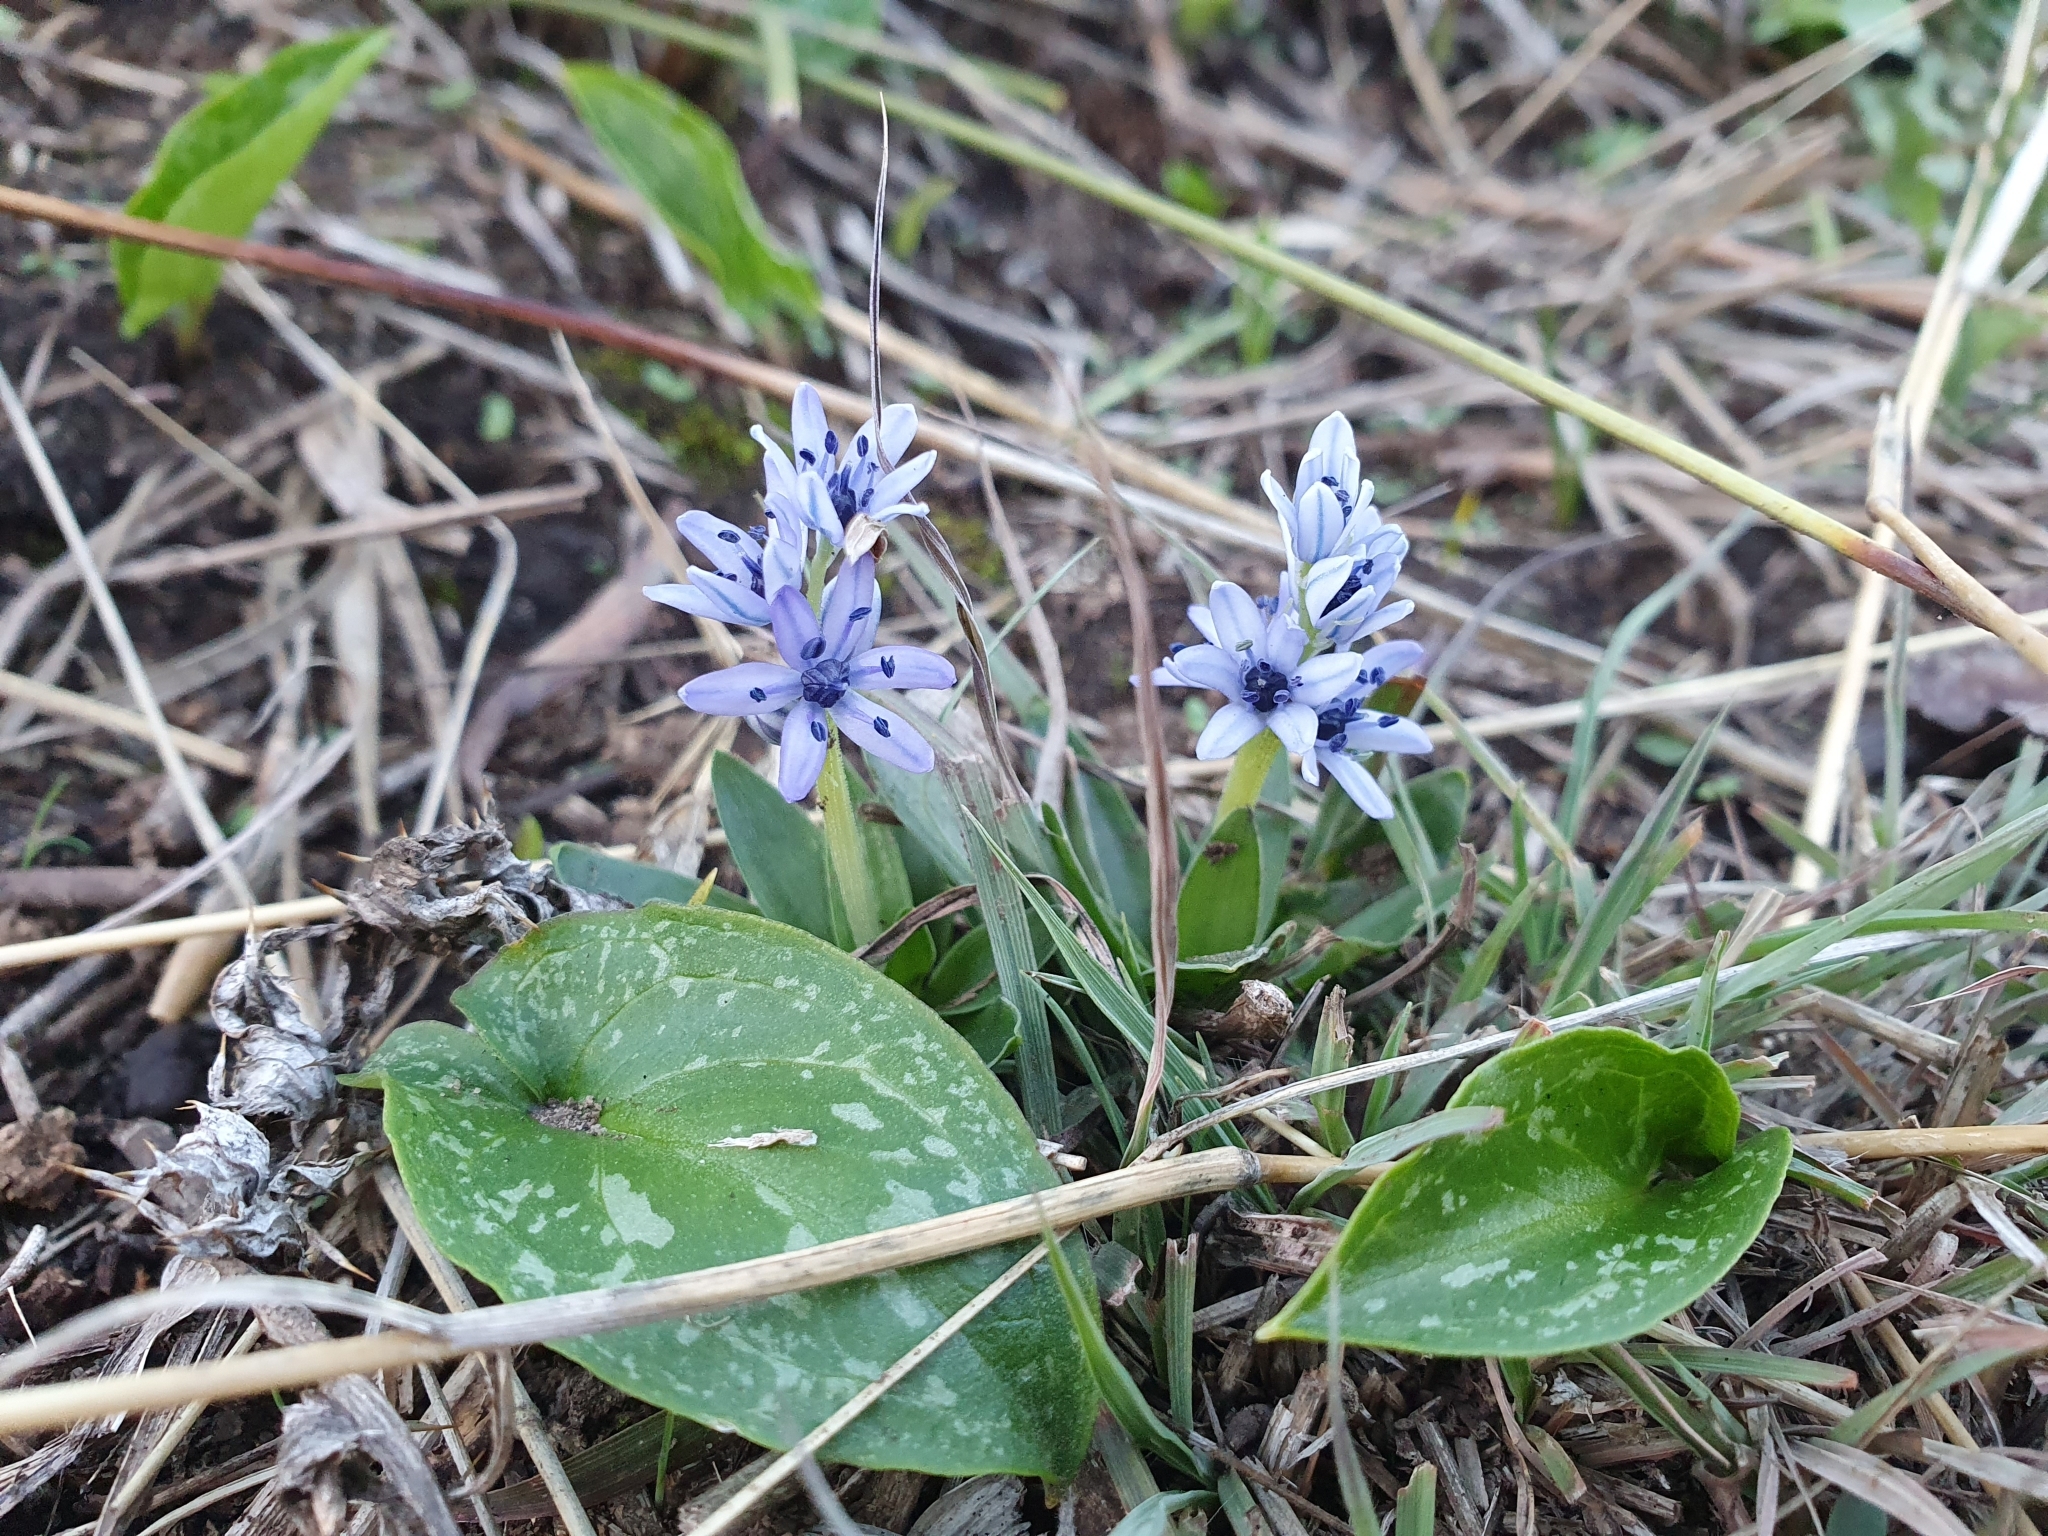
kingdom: Plantae
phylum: Tracheophyta
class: Liliopsida
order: Asparagales
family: Asparagaceae
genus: Hyacinthoides
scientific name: Hyacinthoides lingulata
